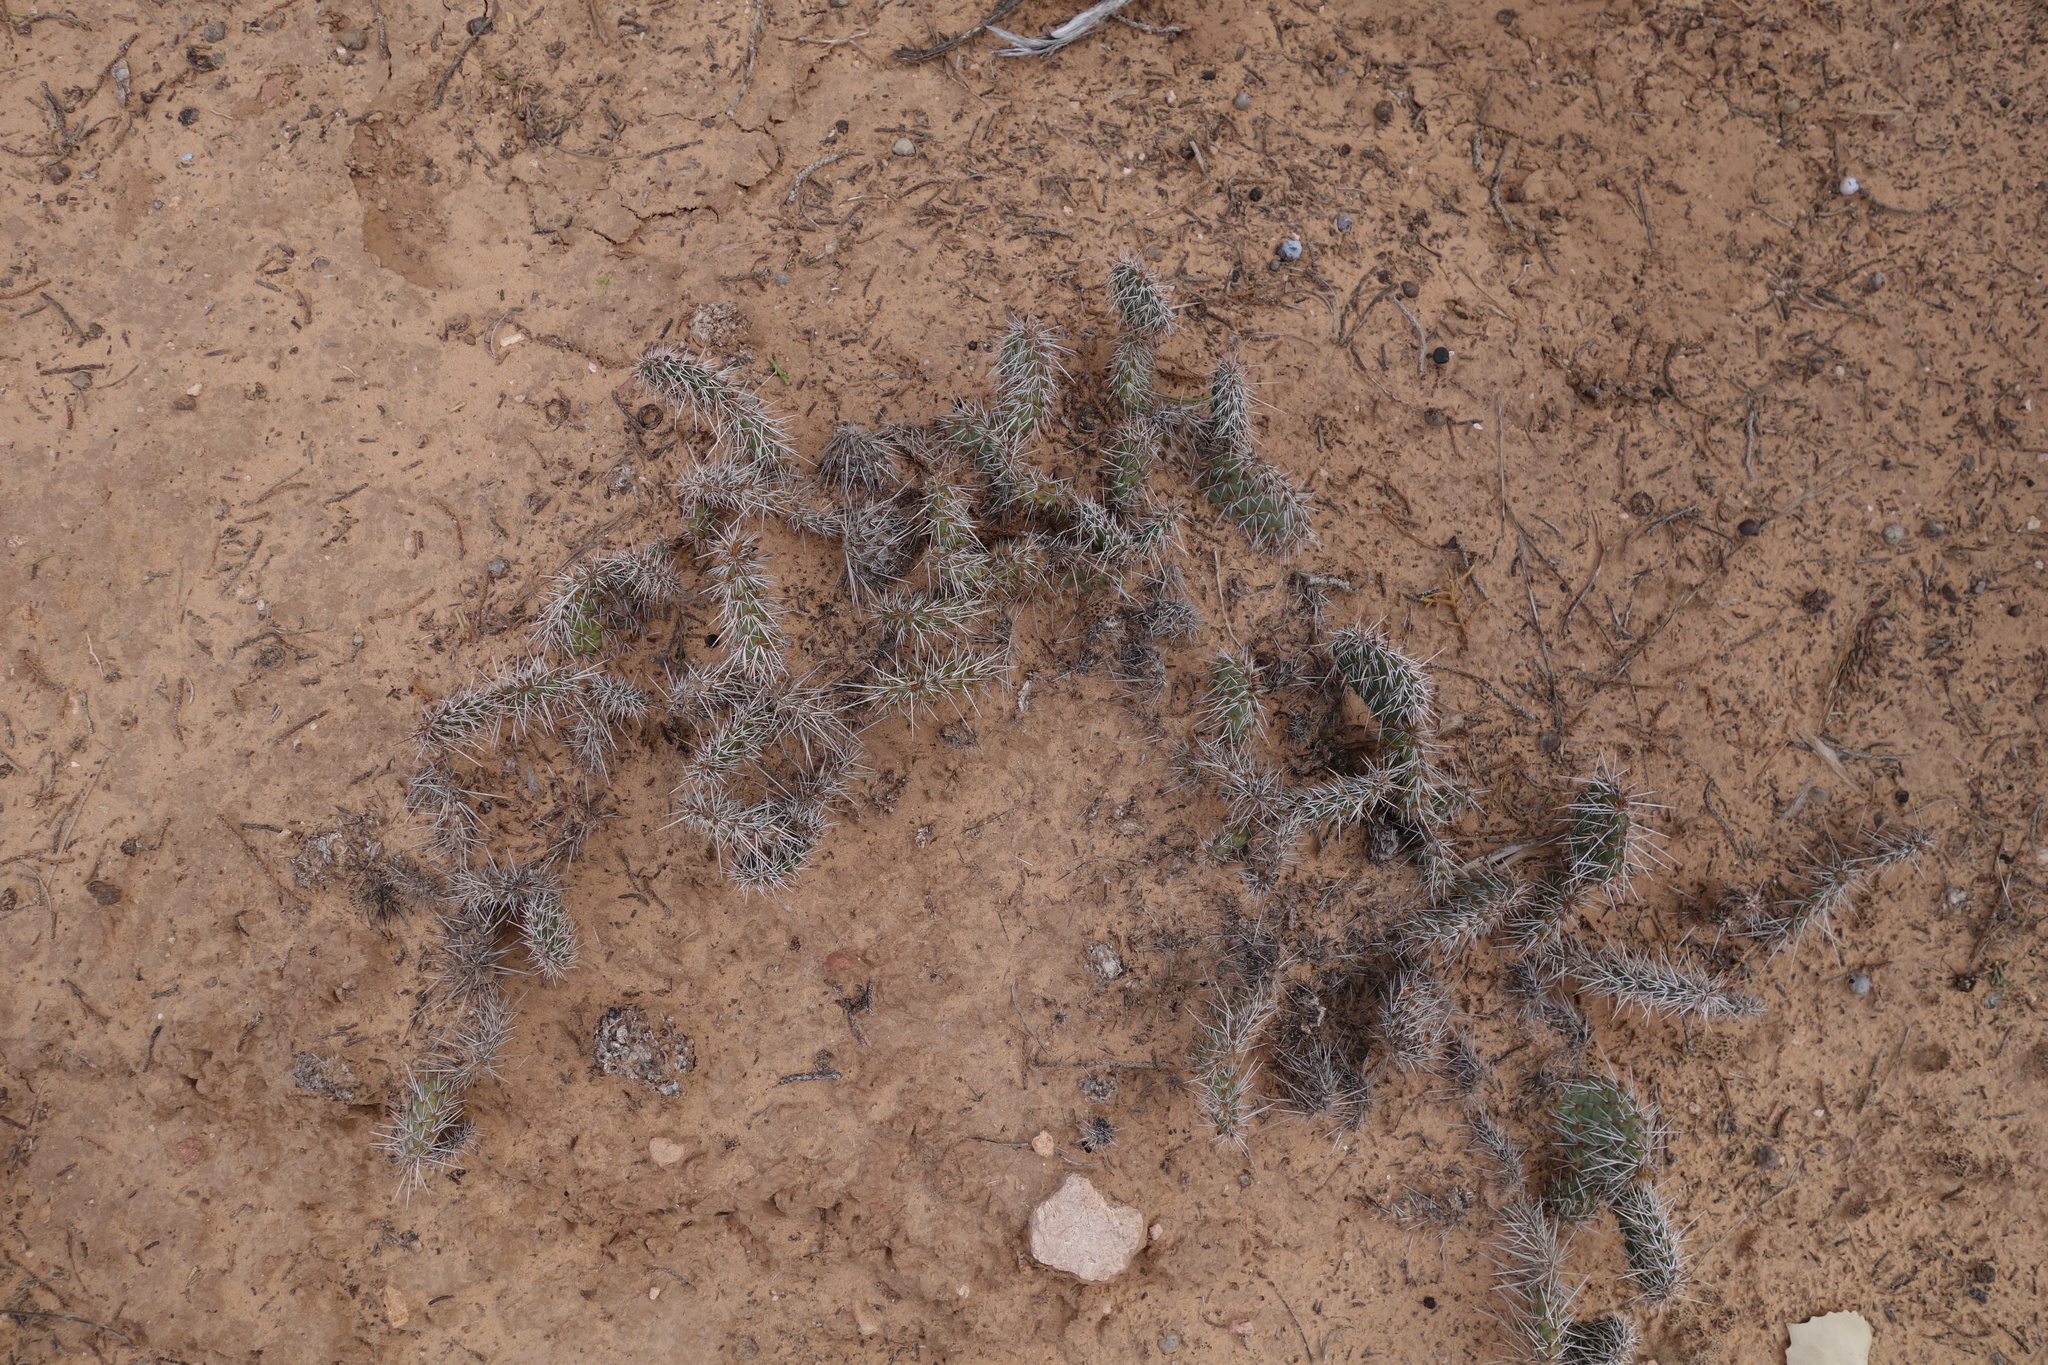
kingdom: Plantae
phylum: Tracheophyta
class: Magnoliopsida
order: Caryophyllales
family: Cactaceae
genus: Opuntia
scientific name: Opuntia polyacantha
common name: Plains prickly-pear
